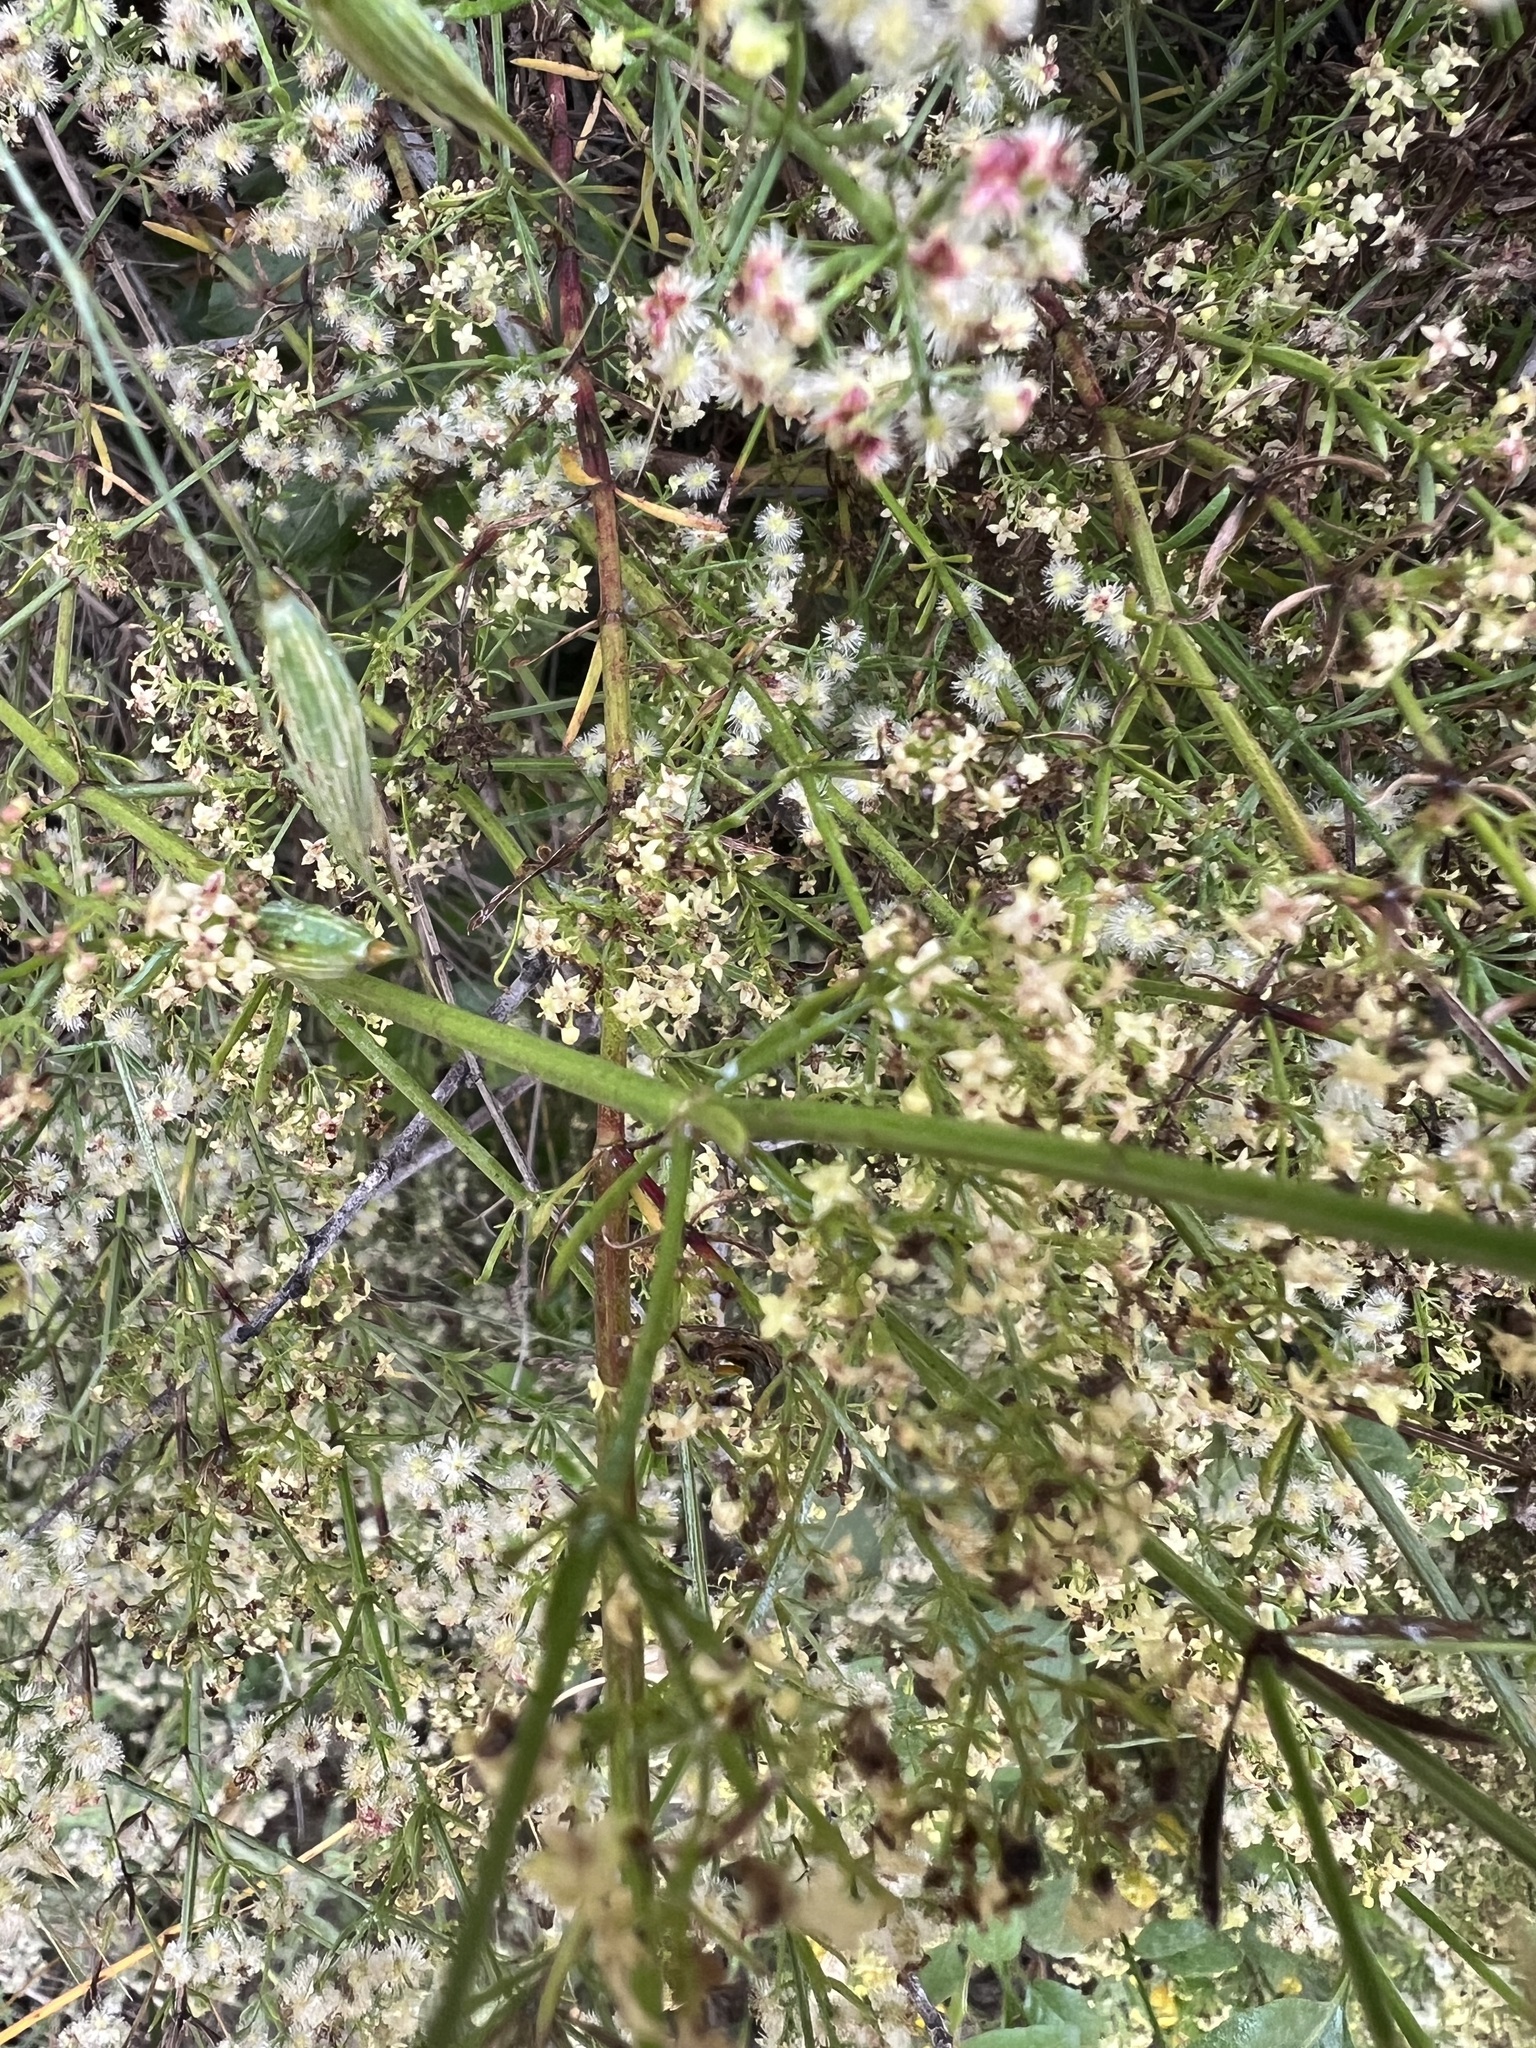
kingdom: Plantae
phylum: Tracheophyta
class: Magnoliopsida
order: Gentianales
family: Rubiaceae
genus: Galium
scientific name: Galium angustifolium
